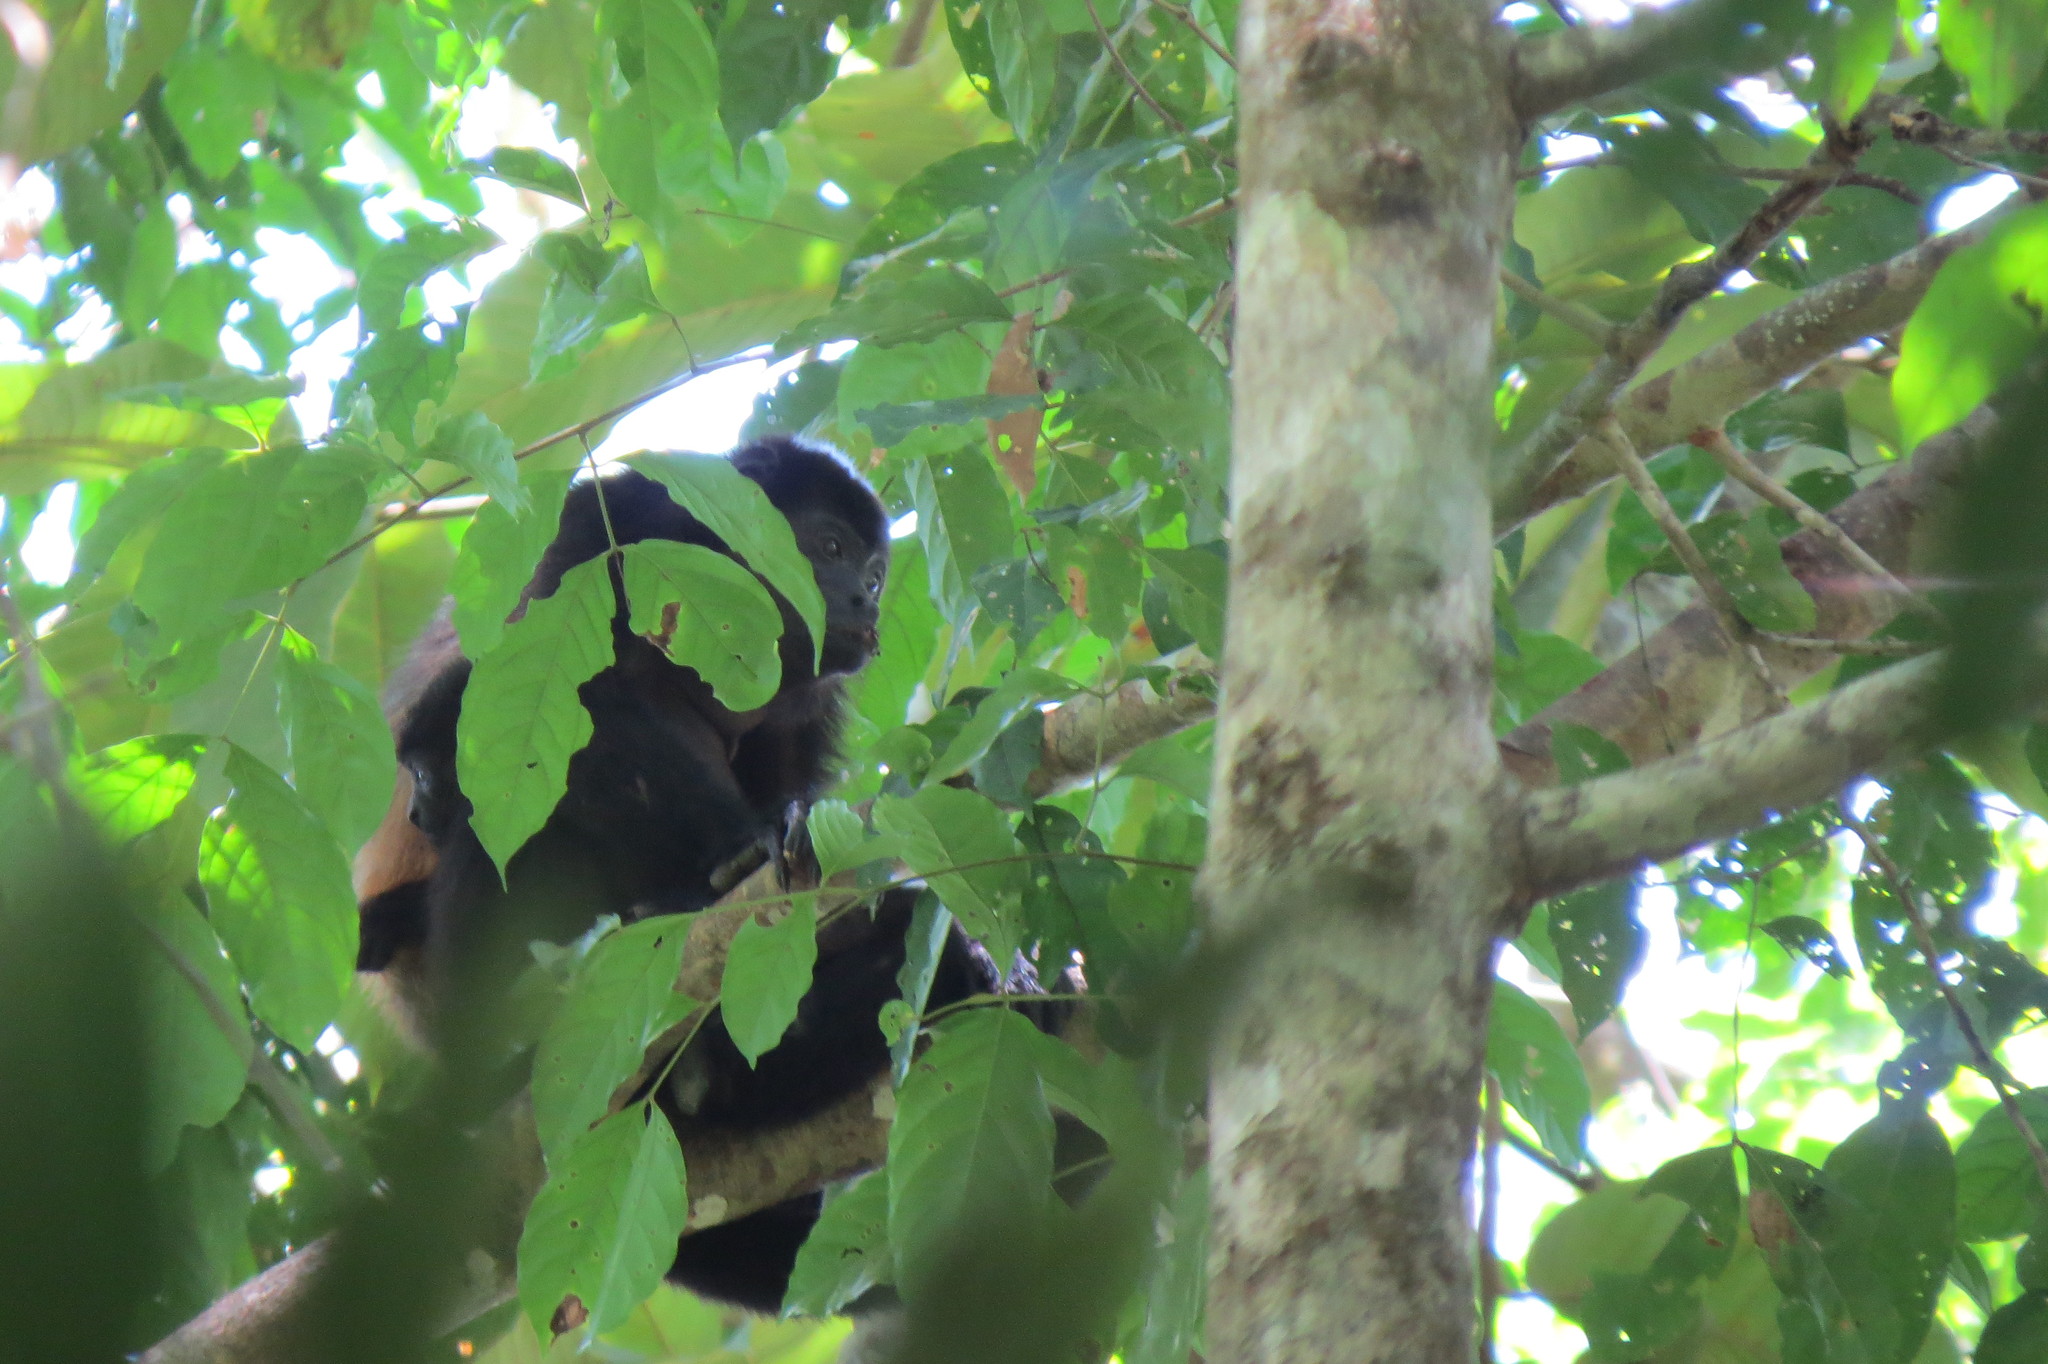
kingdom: Animalia
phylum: Chordata
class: Mammalia
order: Primates
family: Atelidae
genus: Alouatta
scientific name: Alouatta palliata
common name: Mantled howler
